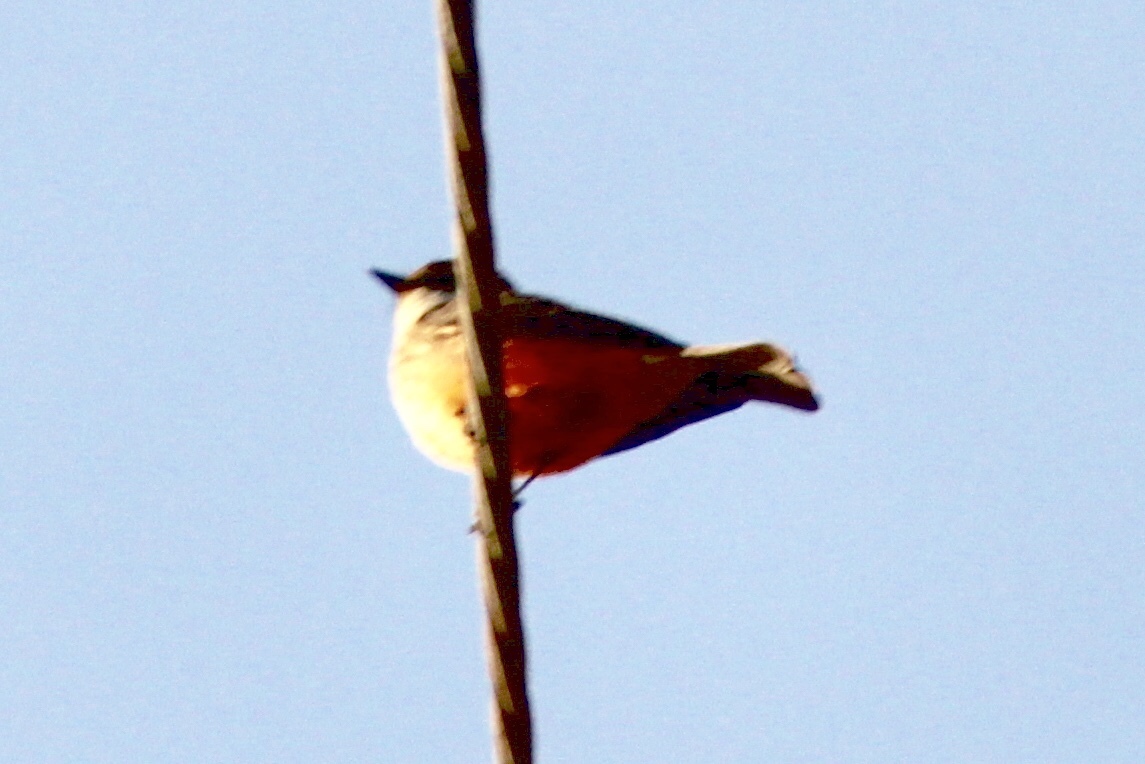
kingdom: Animalia
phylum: Chordata
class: Aves
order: Passeriformes
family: Tyrannidae
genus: Pyrocephalus
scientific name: Pyrocephalus rubinus
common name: Vermilion flycatcher
